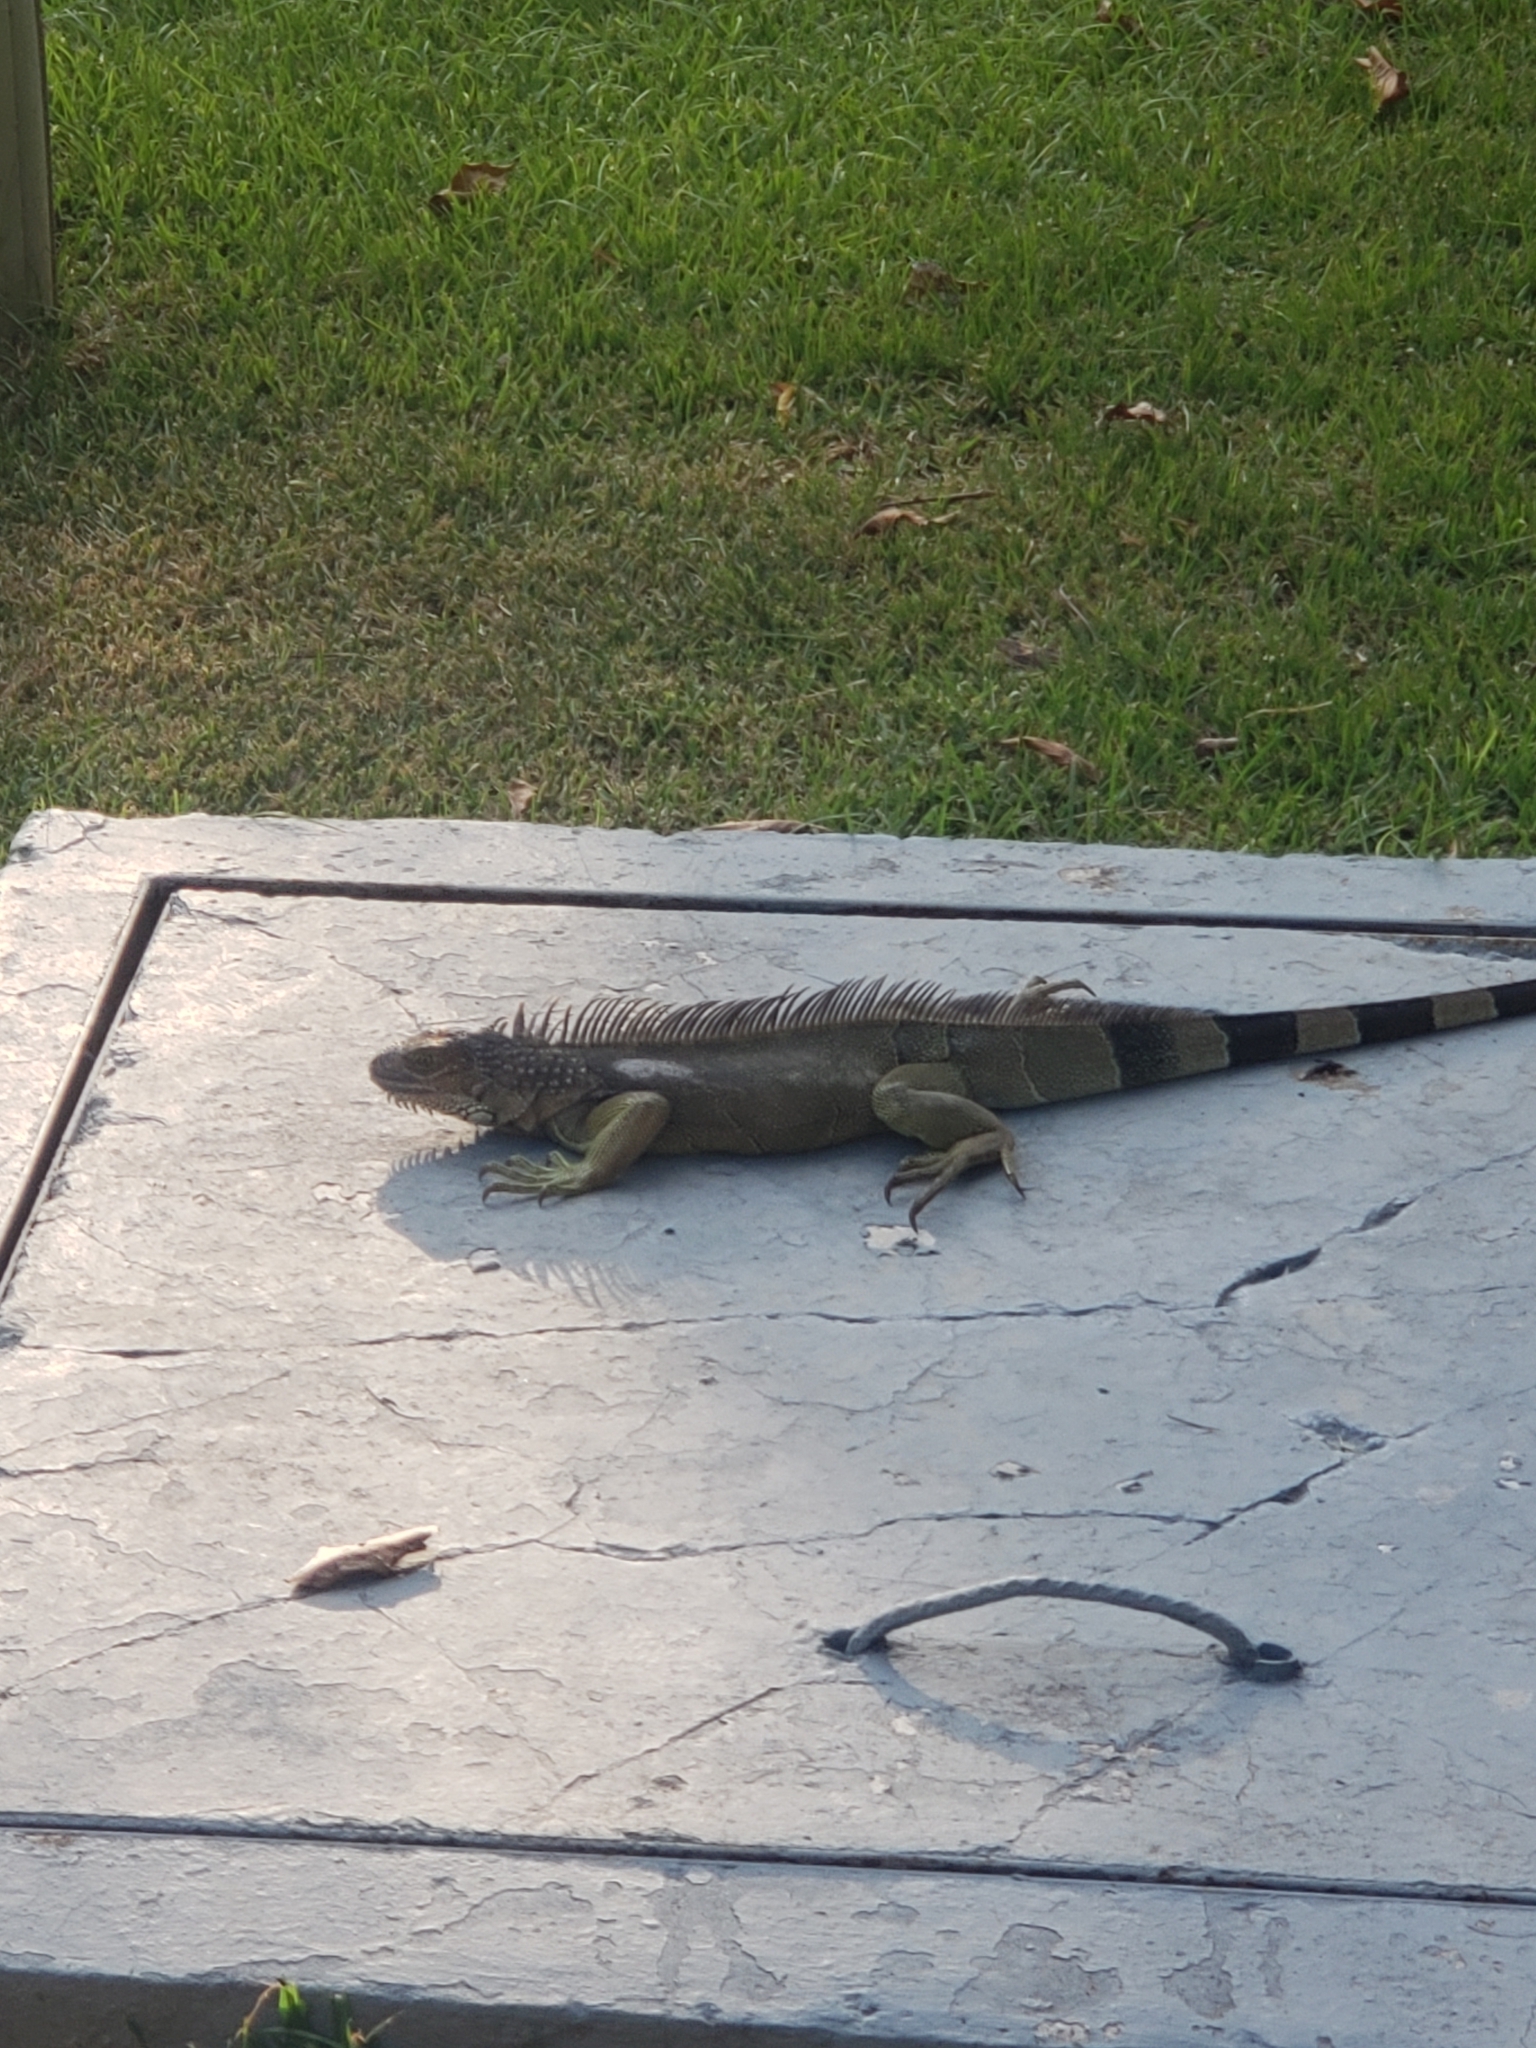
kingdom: Animalia
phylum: Chordata
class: Squamata
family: Iguanidae
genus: Iguana
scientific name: Iguana iguana
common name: Green iguana
